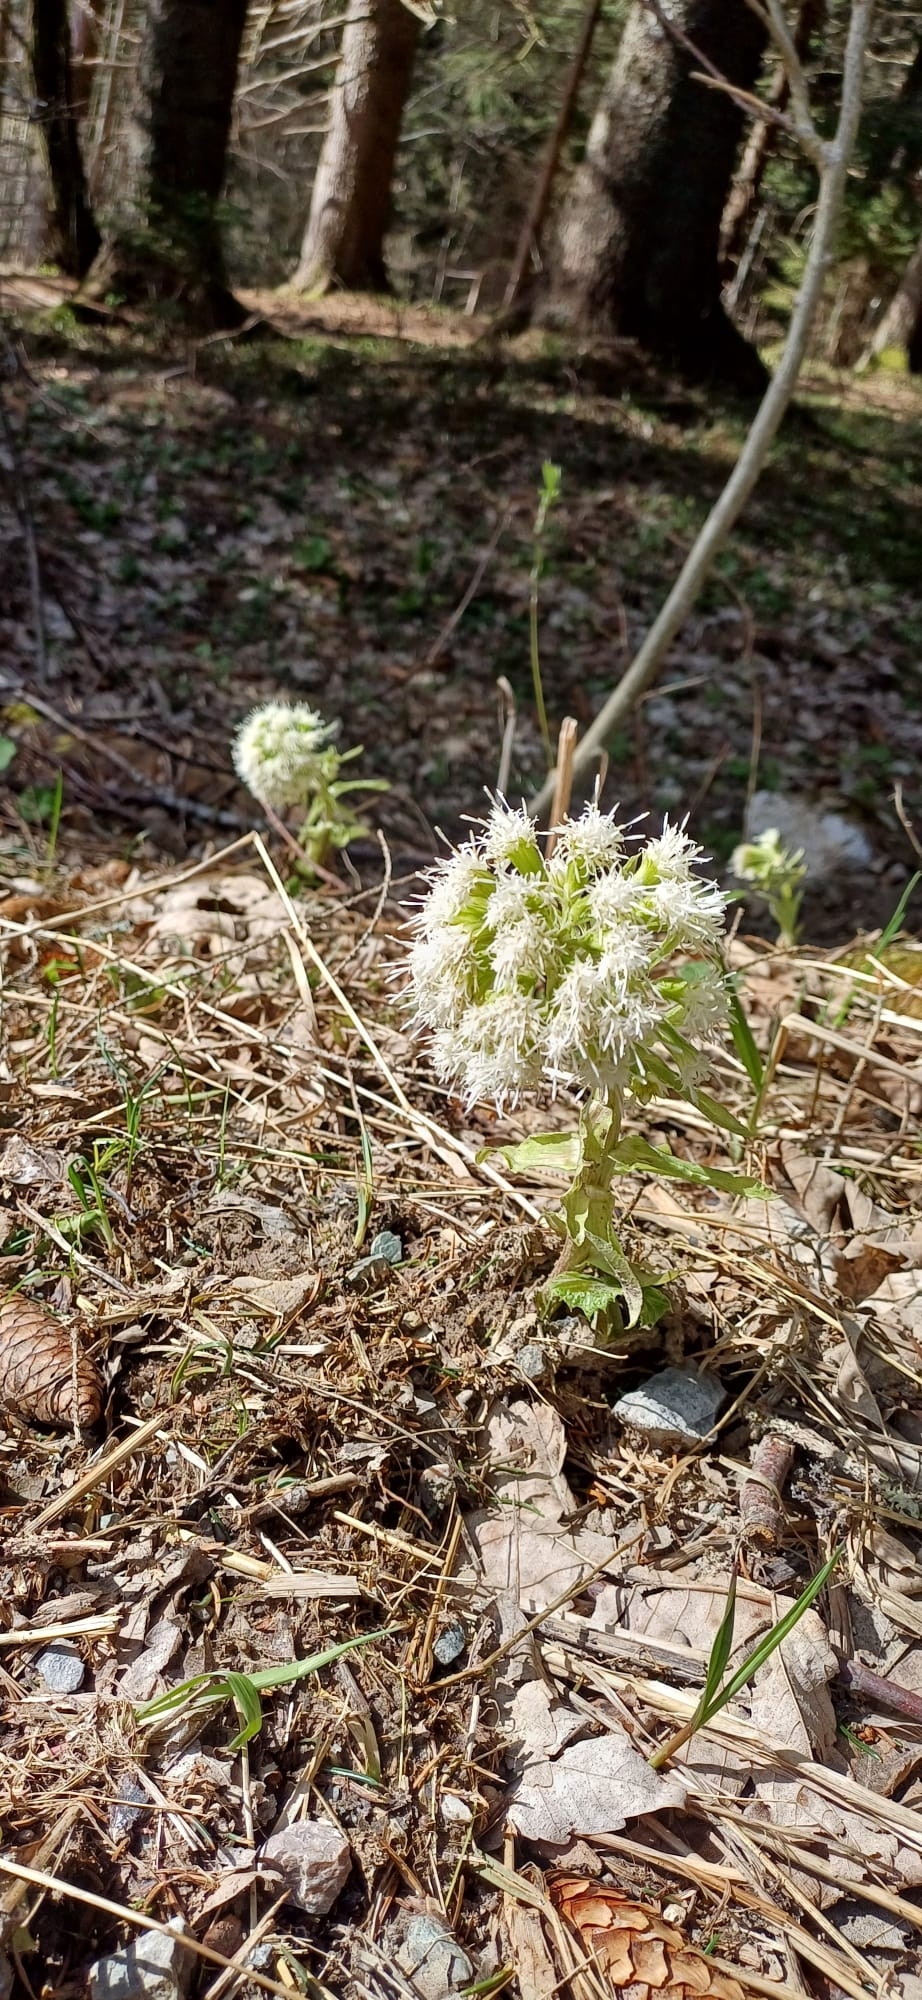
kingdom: Plantae
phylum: Tracheophyta
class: Magnoliopsida
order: Asterales
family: Asteraceae
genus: Petasites
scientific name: Petasites albus
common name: White butterbur
